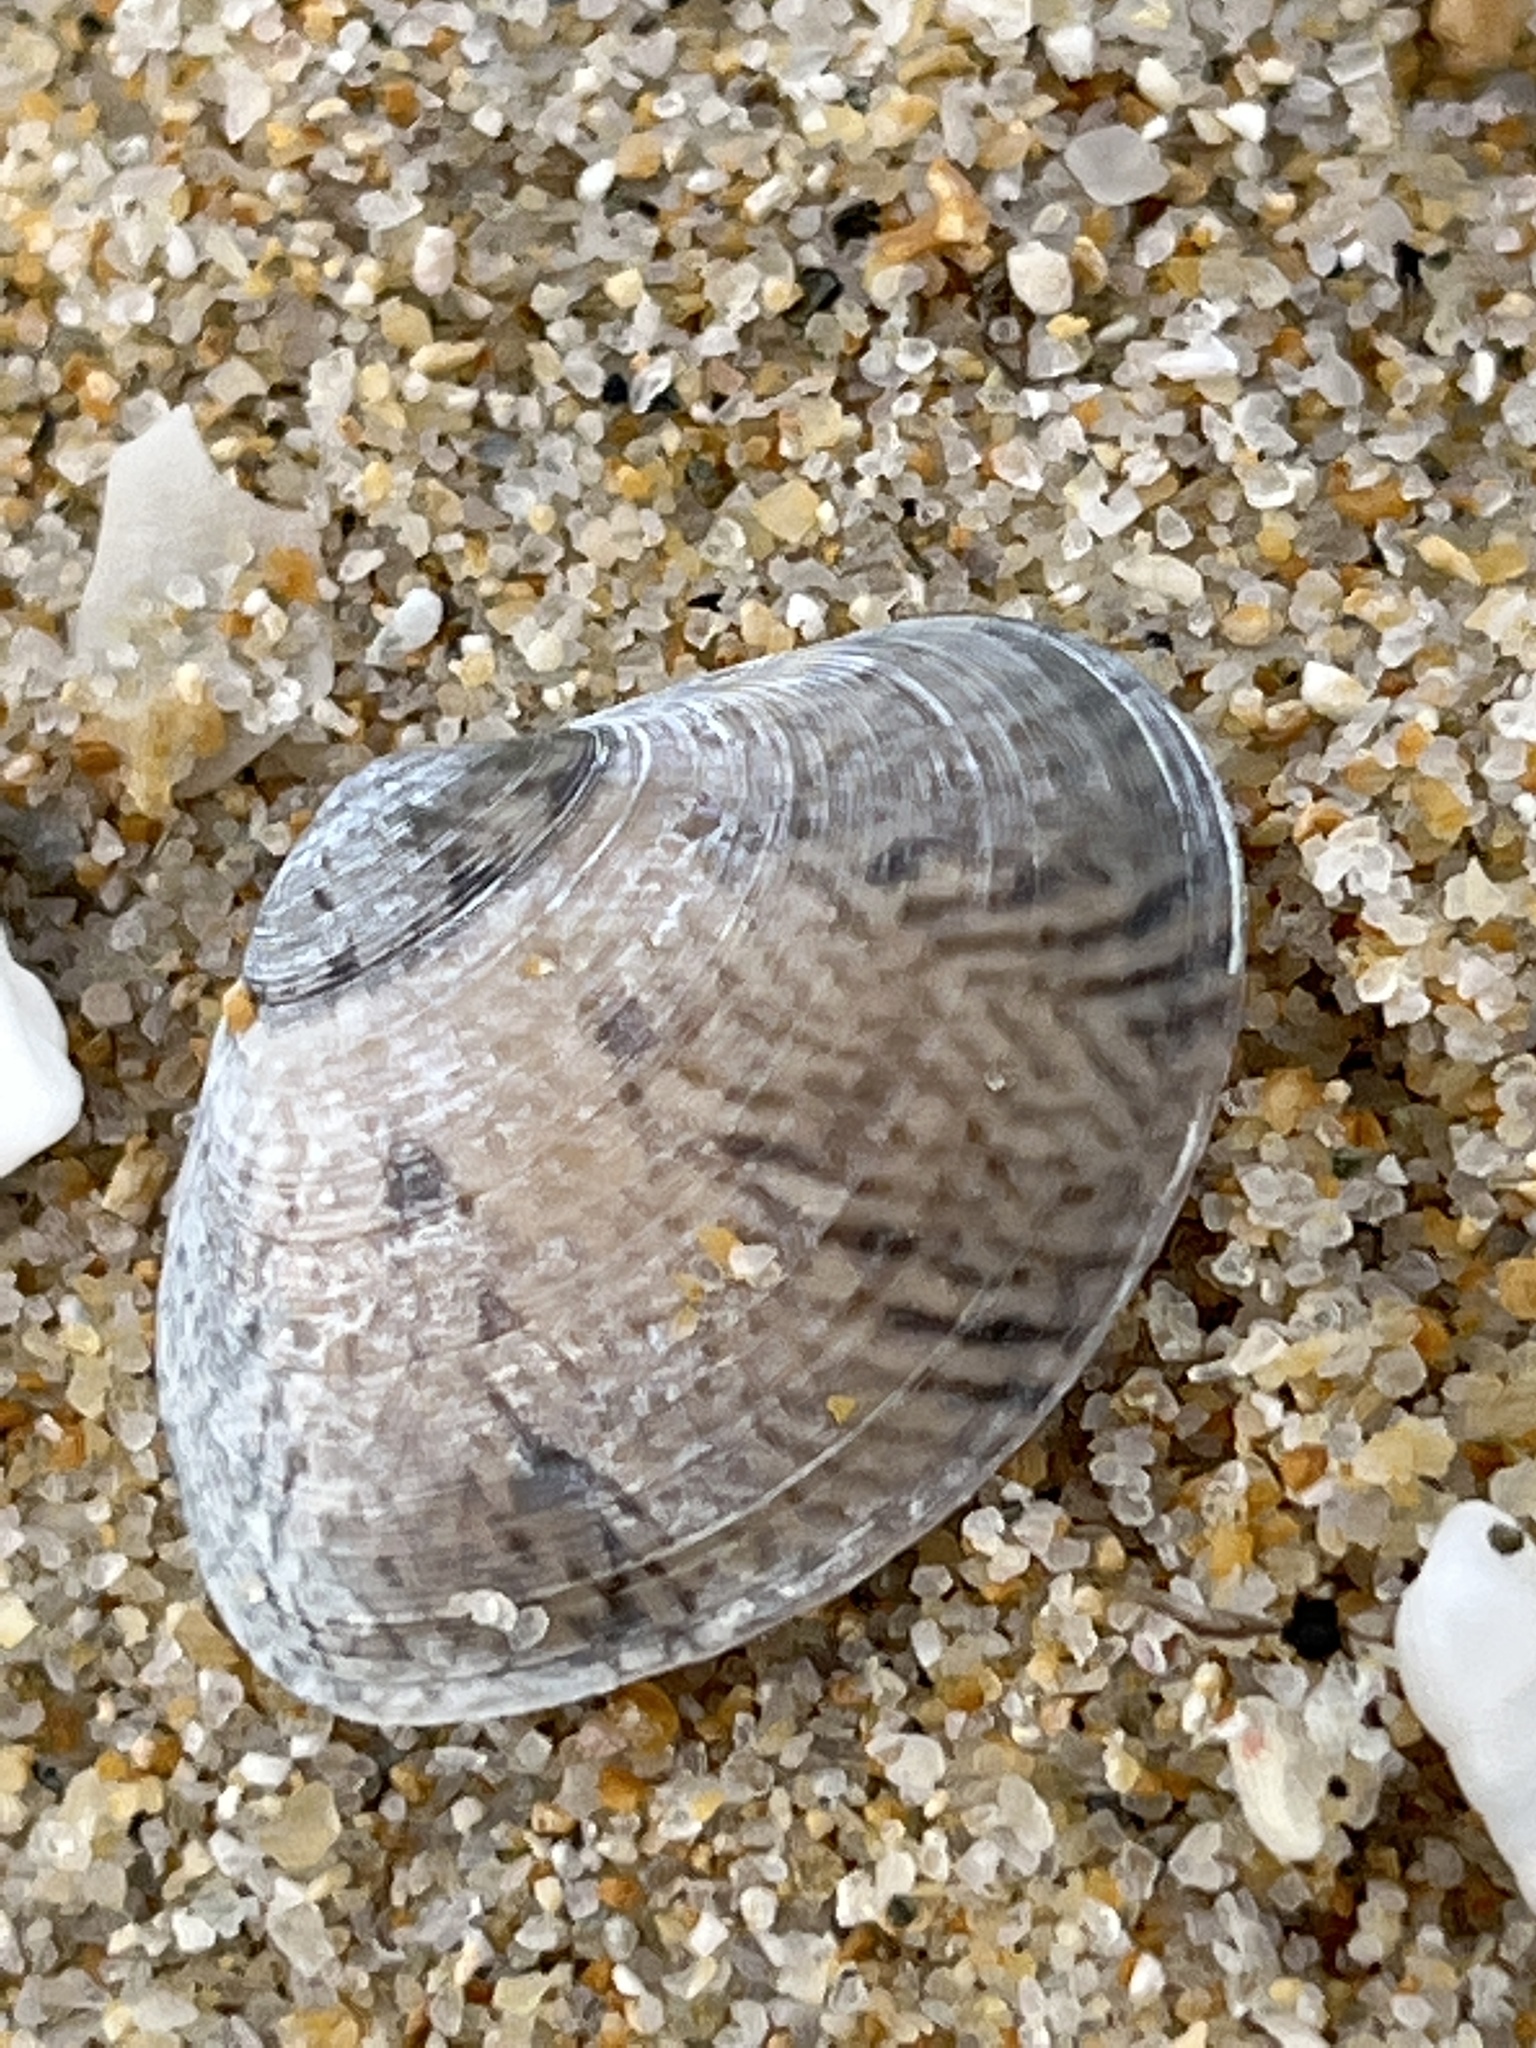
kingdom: Animalia
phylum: Mollusca
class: Bivalvia
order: Venerida
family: Veneridae
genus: Macridiscus
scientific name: Macridiscus aequilatera
